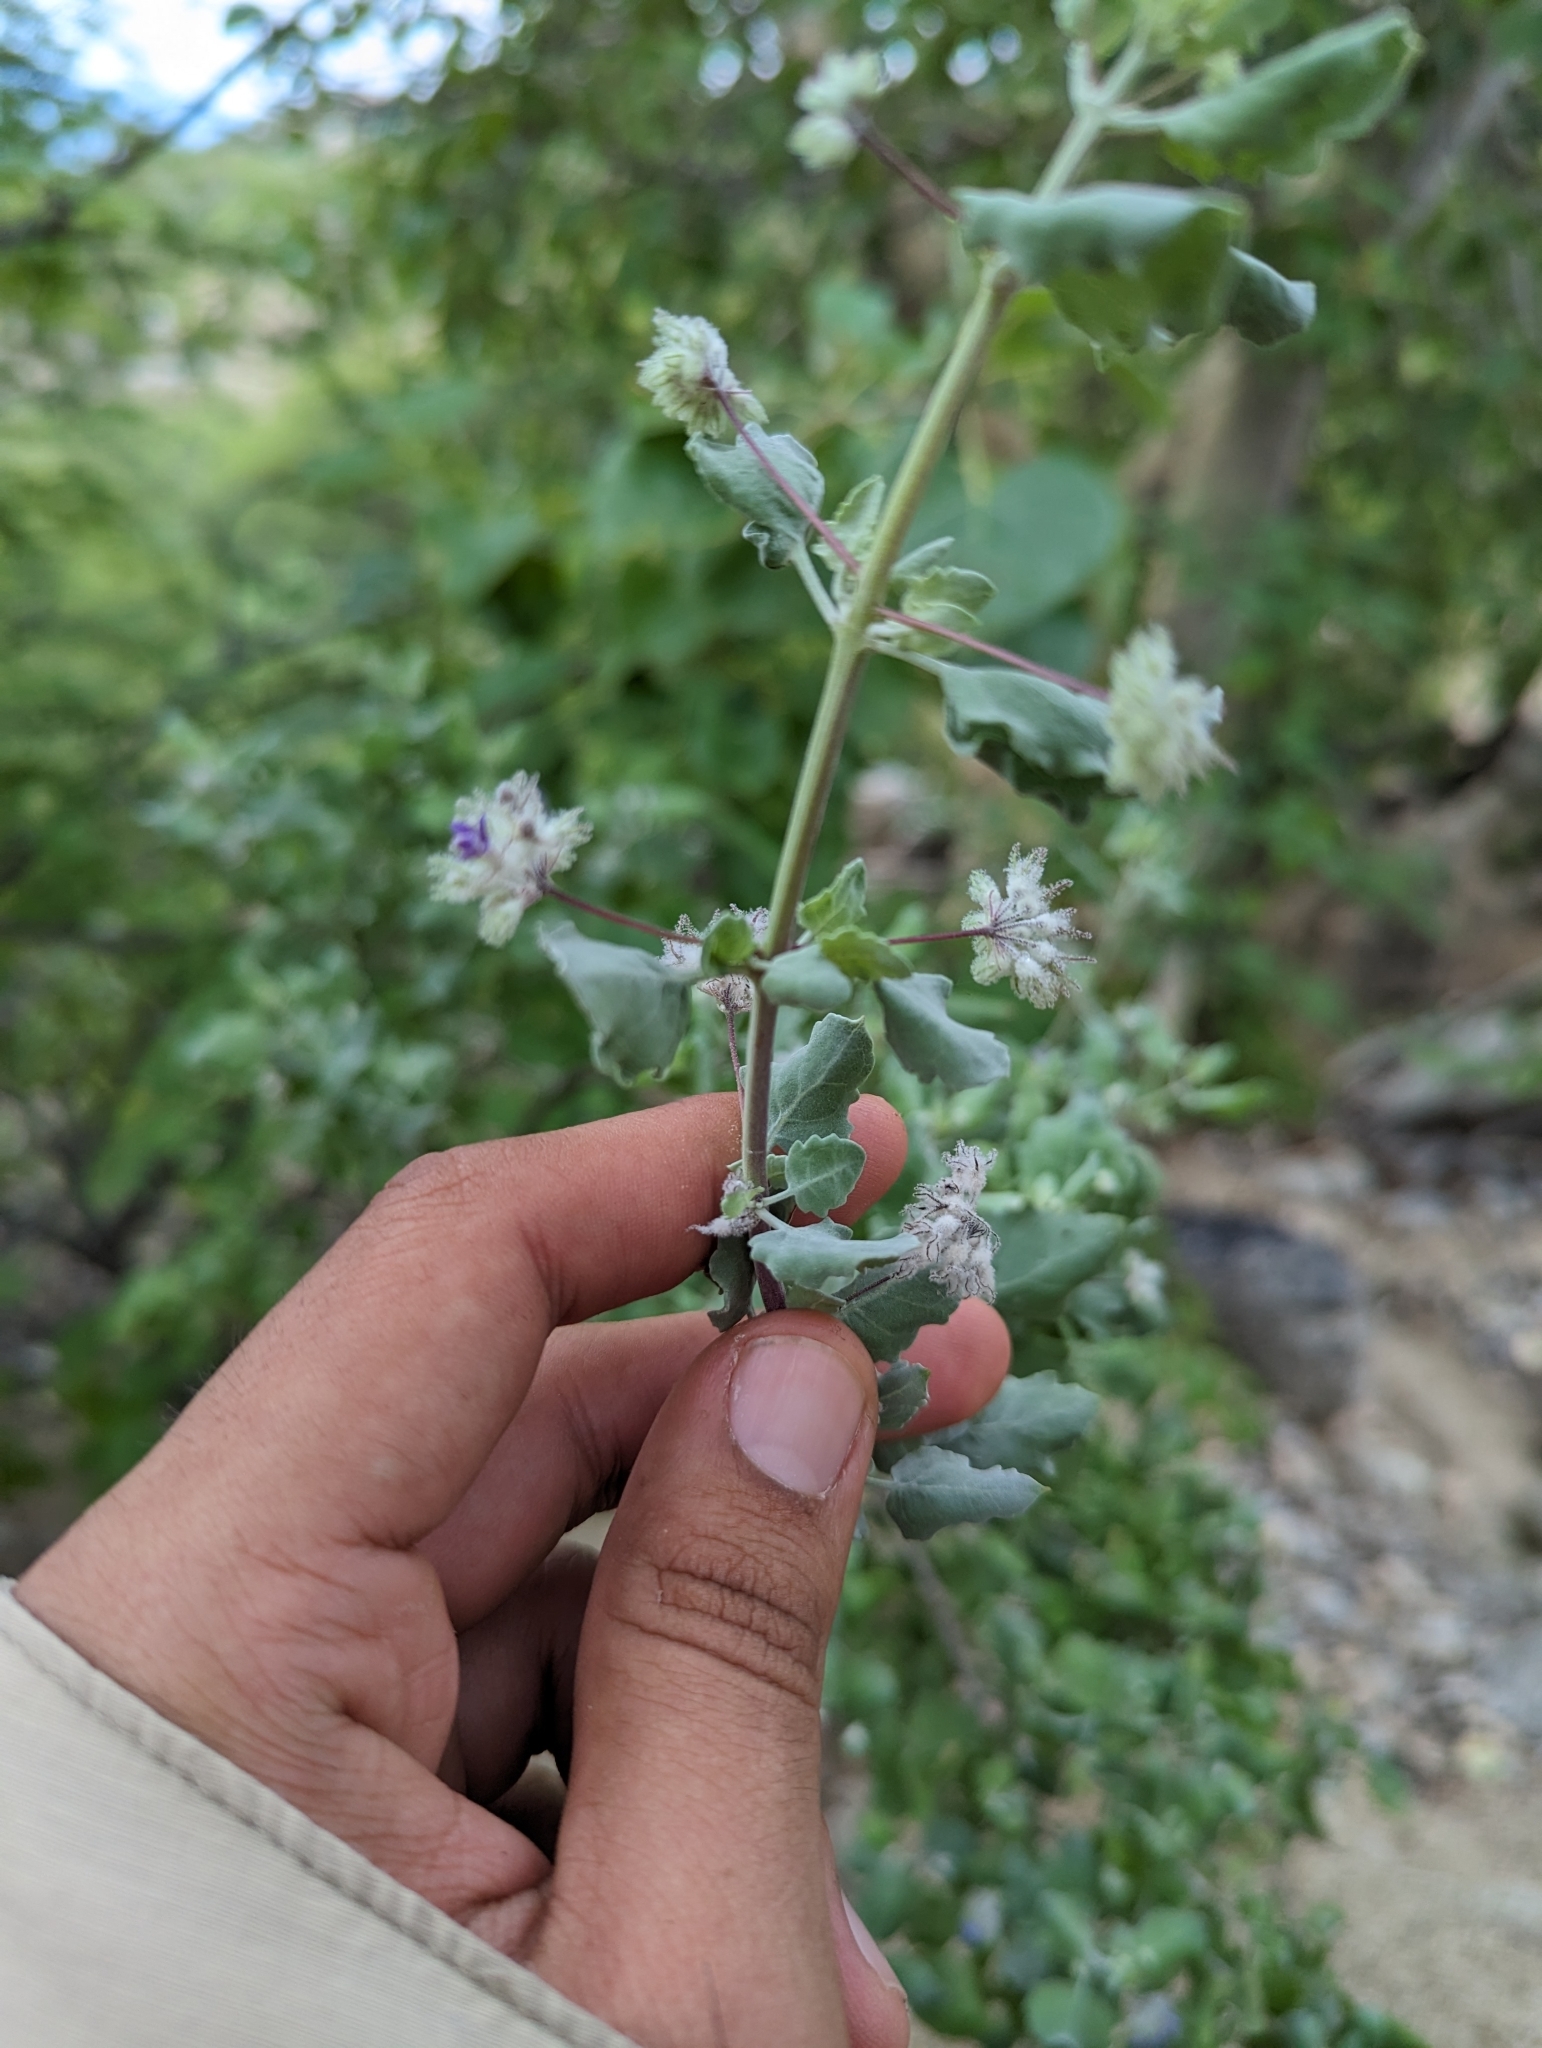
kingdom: Plantae
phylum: Tracheophyta
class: Magnoliopsida
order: Lamiales
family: Lamiaceae
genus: Condea
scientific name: Condea laniflora
